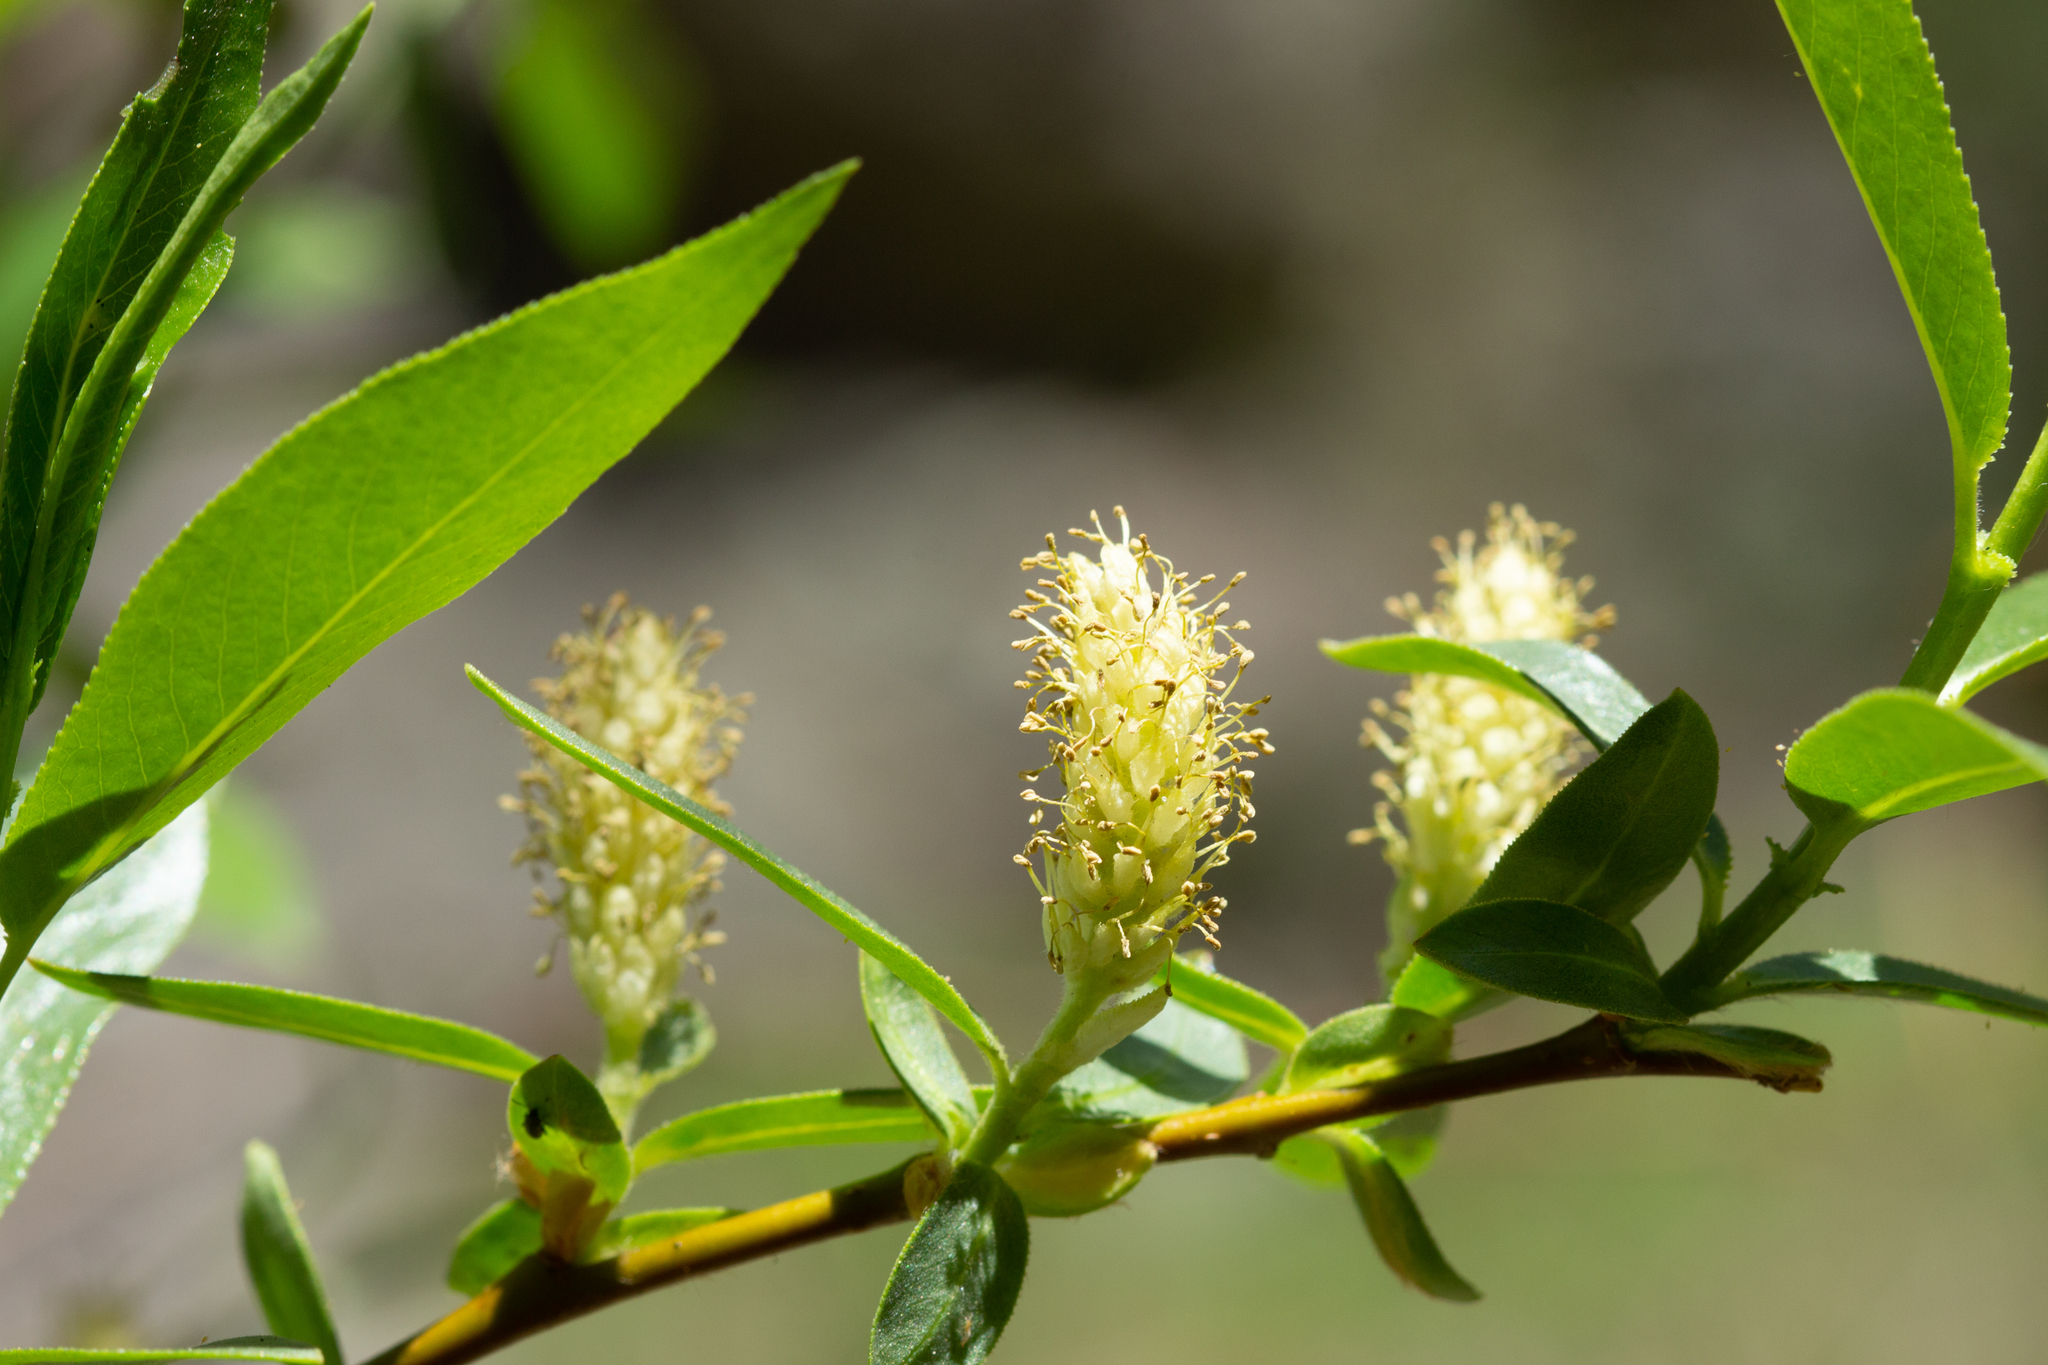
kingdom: Plantae
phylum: Tracheophyta
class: Magnoliopsida
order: Malpighiales
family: Salicaceae
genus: Salix
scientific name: Salix lucida
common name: Shining willow
